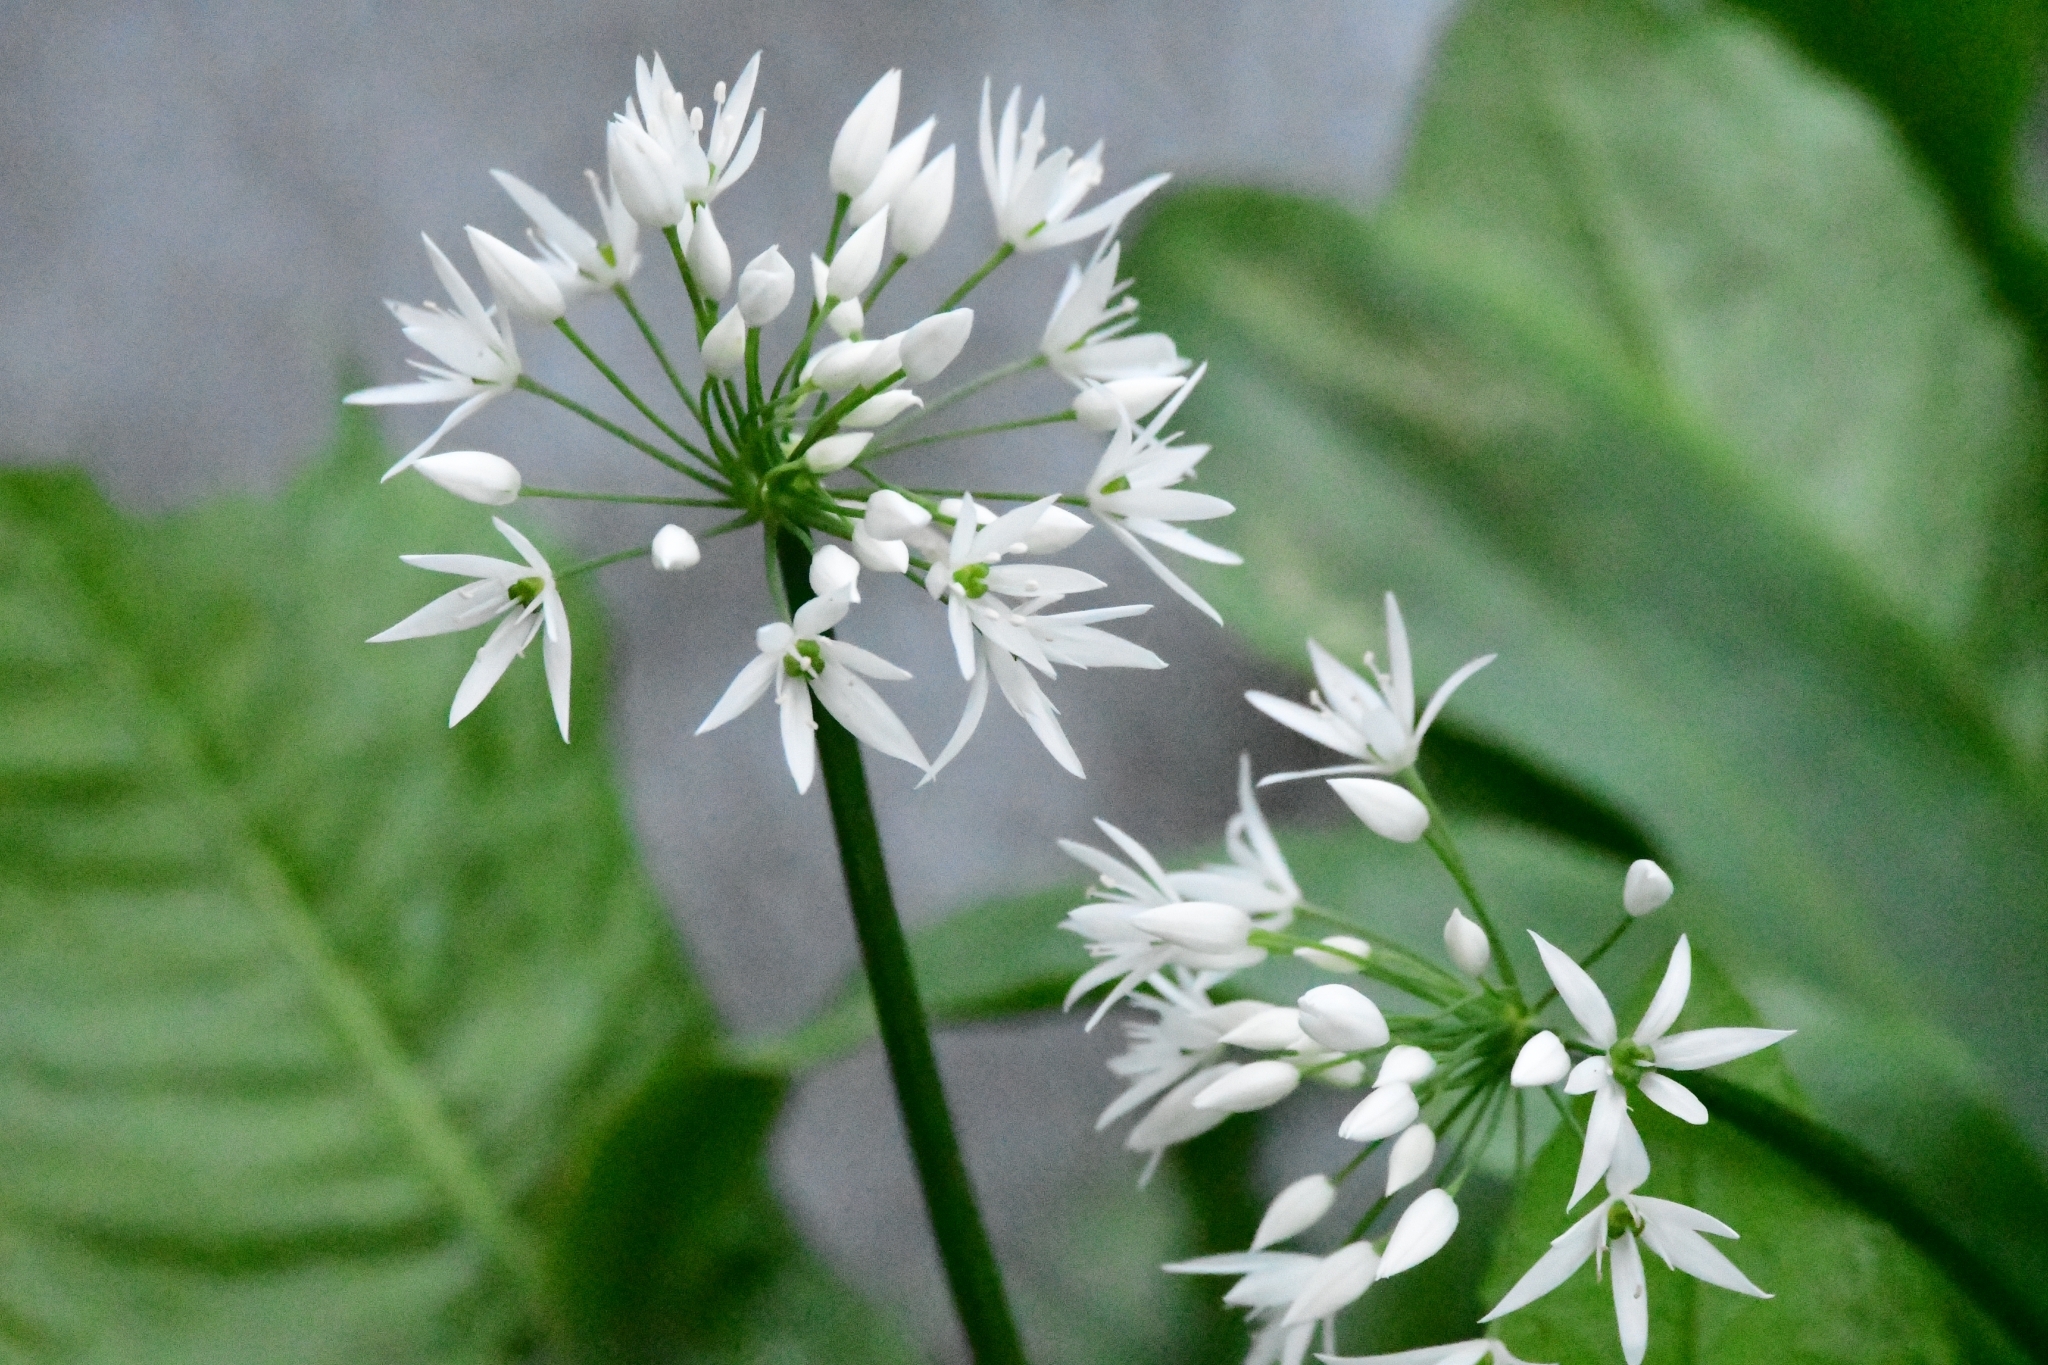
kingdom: Plantae
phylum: Tracheophyta
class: Liliopsida
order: Asparagales
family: Amaryllidaceae
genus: Allium
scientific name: Allium ursinum
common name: Ramsons
